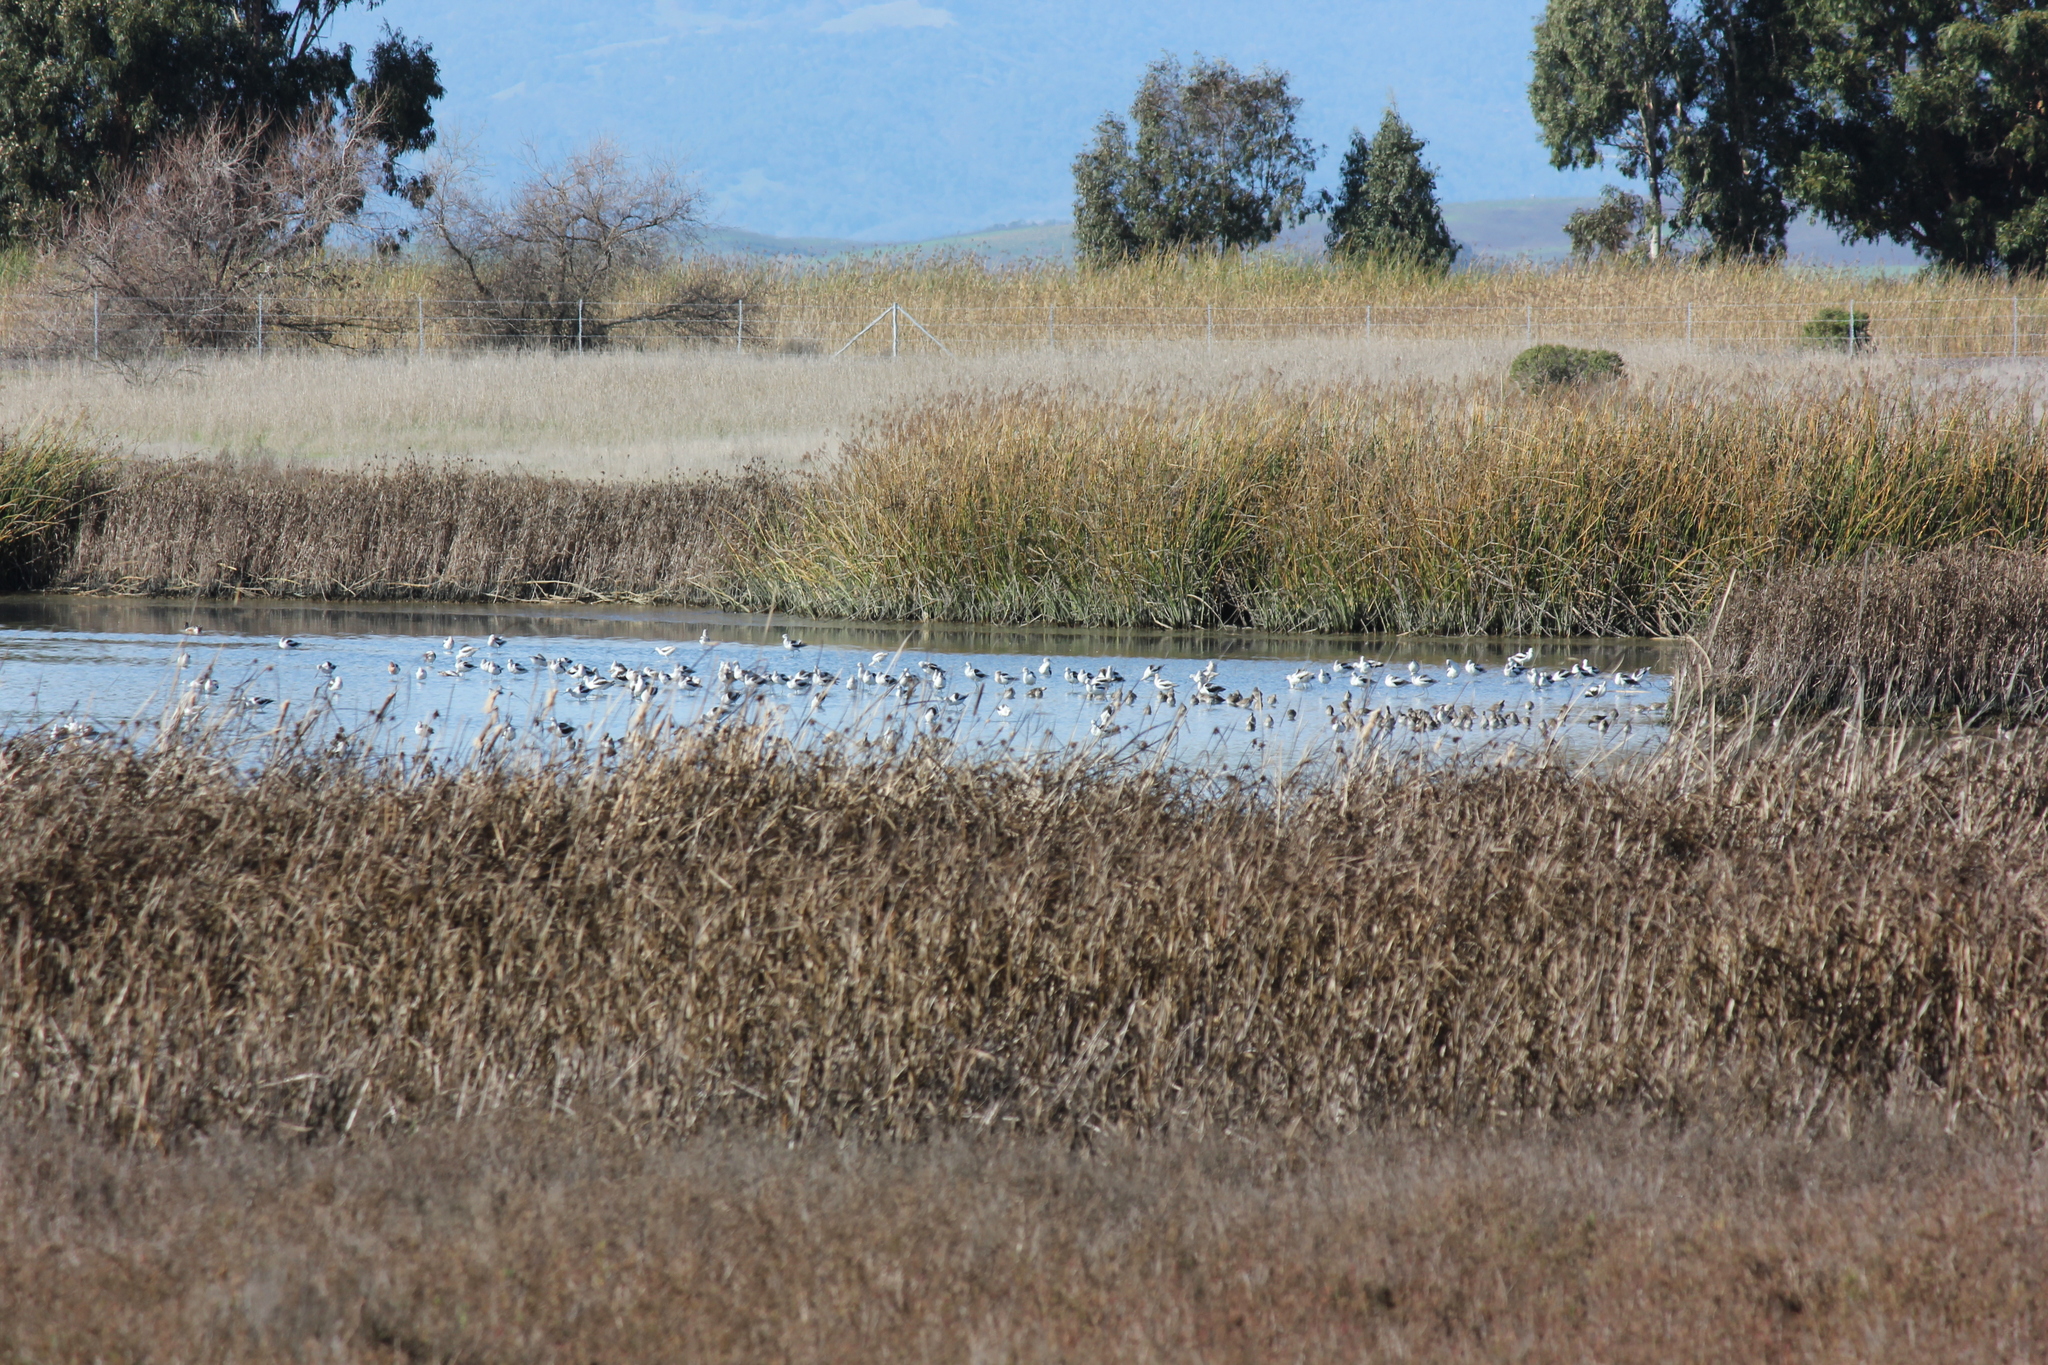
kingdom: Animalia
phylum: Chordata
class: Aves
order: Charadriiformes
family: Recurvirostridae
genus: Recurvirostra
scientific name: Recurvirostra americana
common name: American avocet
